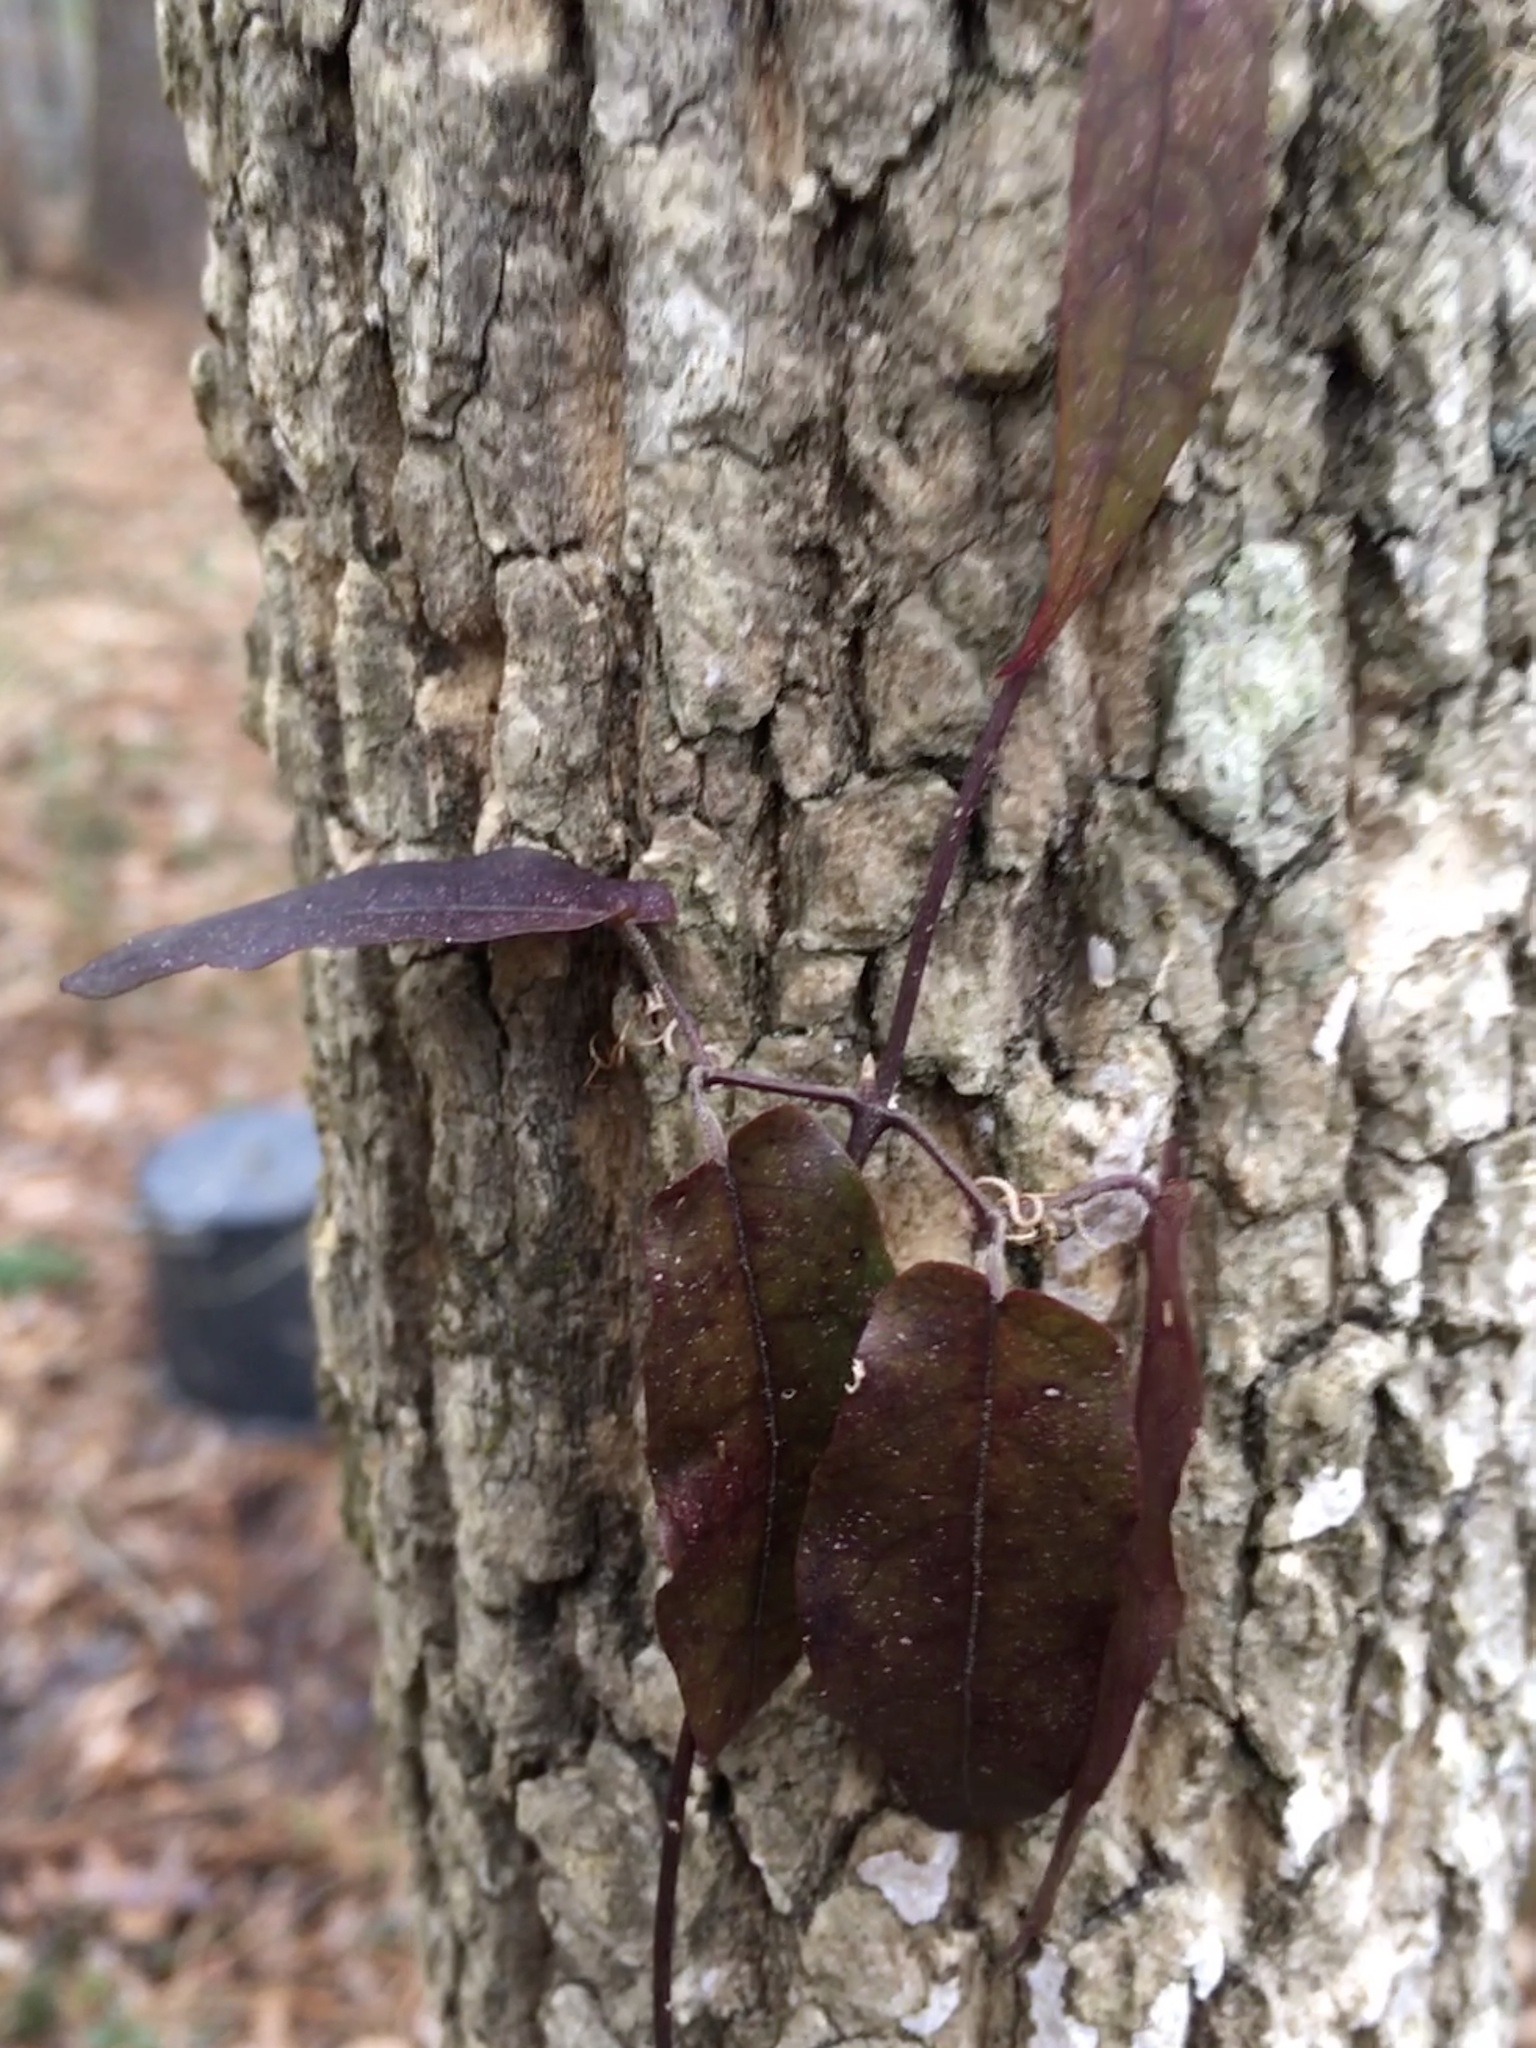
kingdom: Plantae
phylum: Tracheophyta
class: Magnoliopsida
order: Lamiales
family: Bignoniaceae
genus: Bignonia
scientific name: Bignonia capreolata
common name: Crossvine
